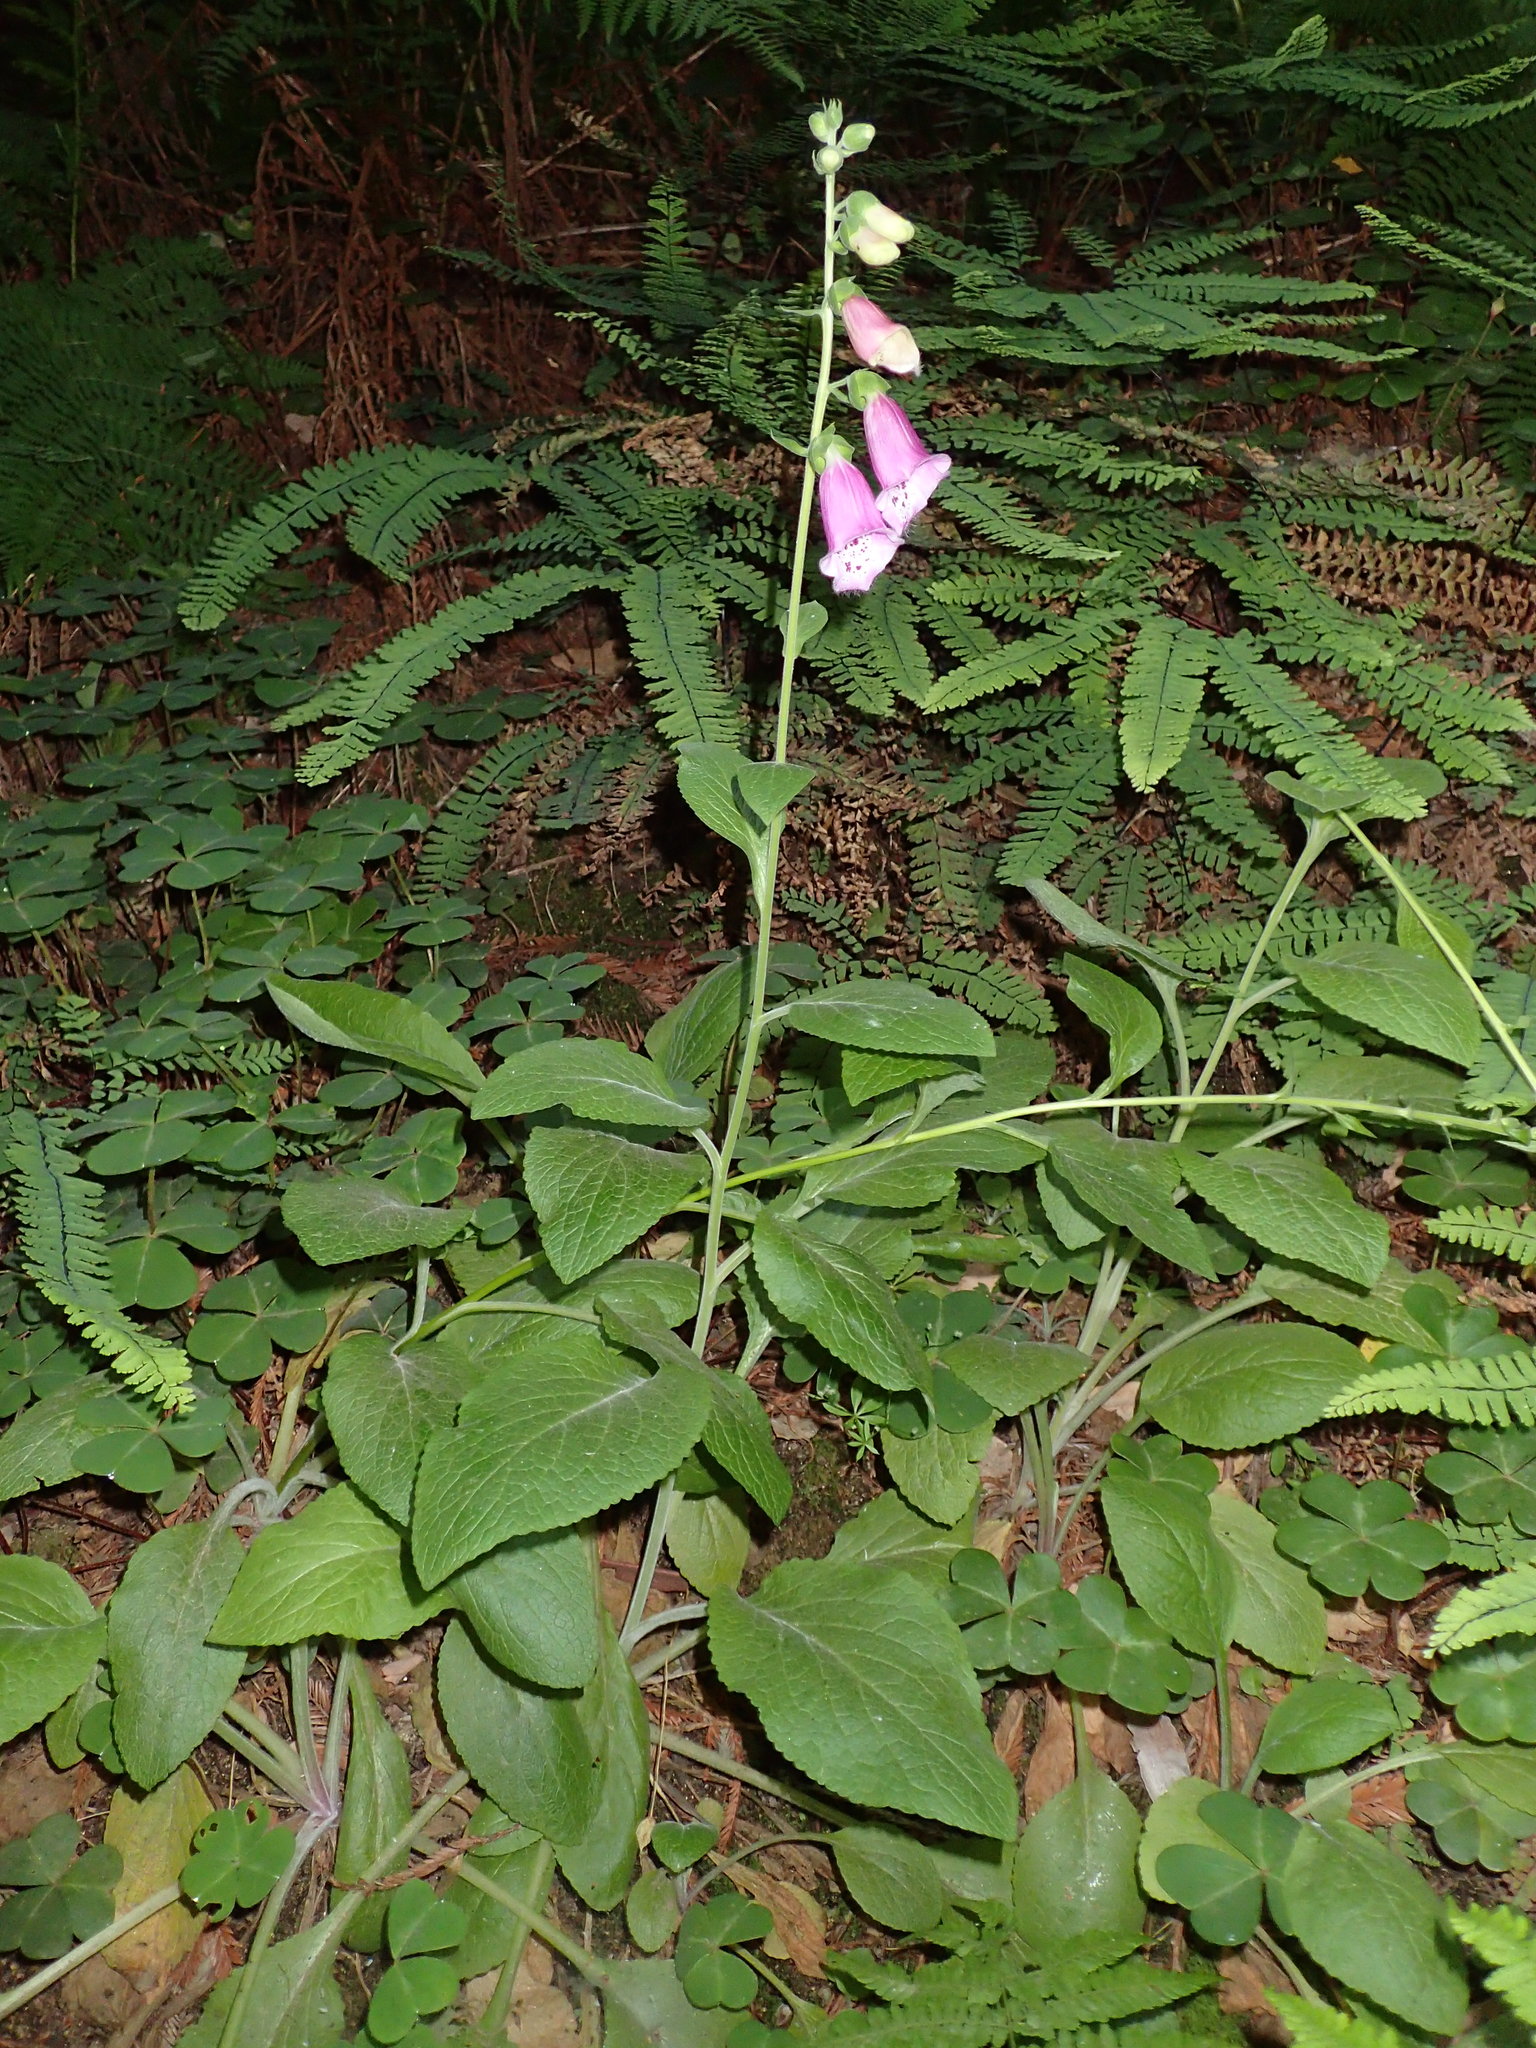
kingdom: Plantae
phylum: Tracheophyta
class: Magnoliopsida
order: Lamiales
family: Plantaginaceae
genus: Digitalis
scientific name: Digitalis purpurea
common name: Foxglove
